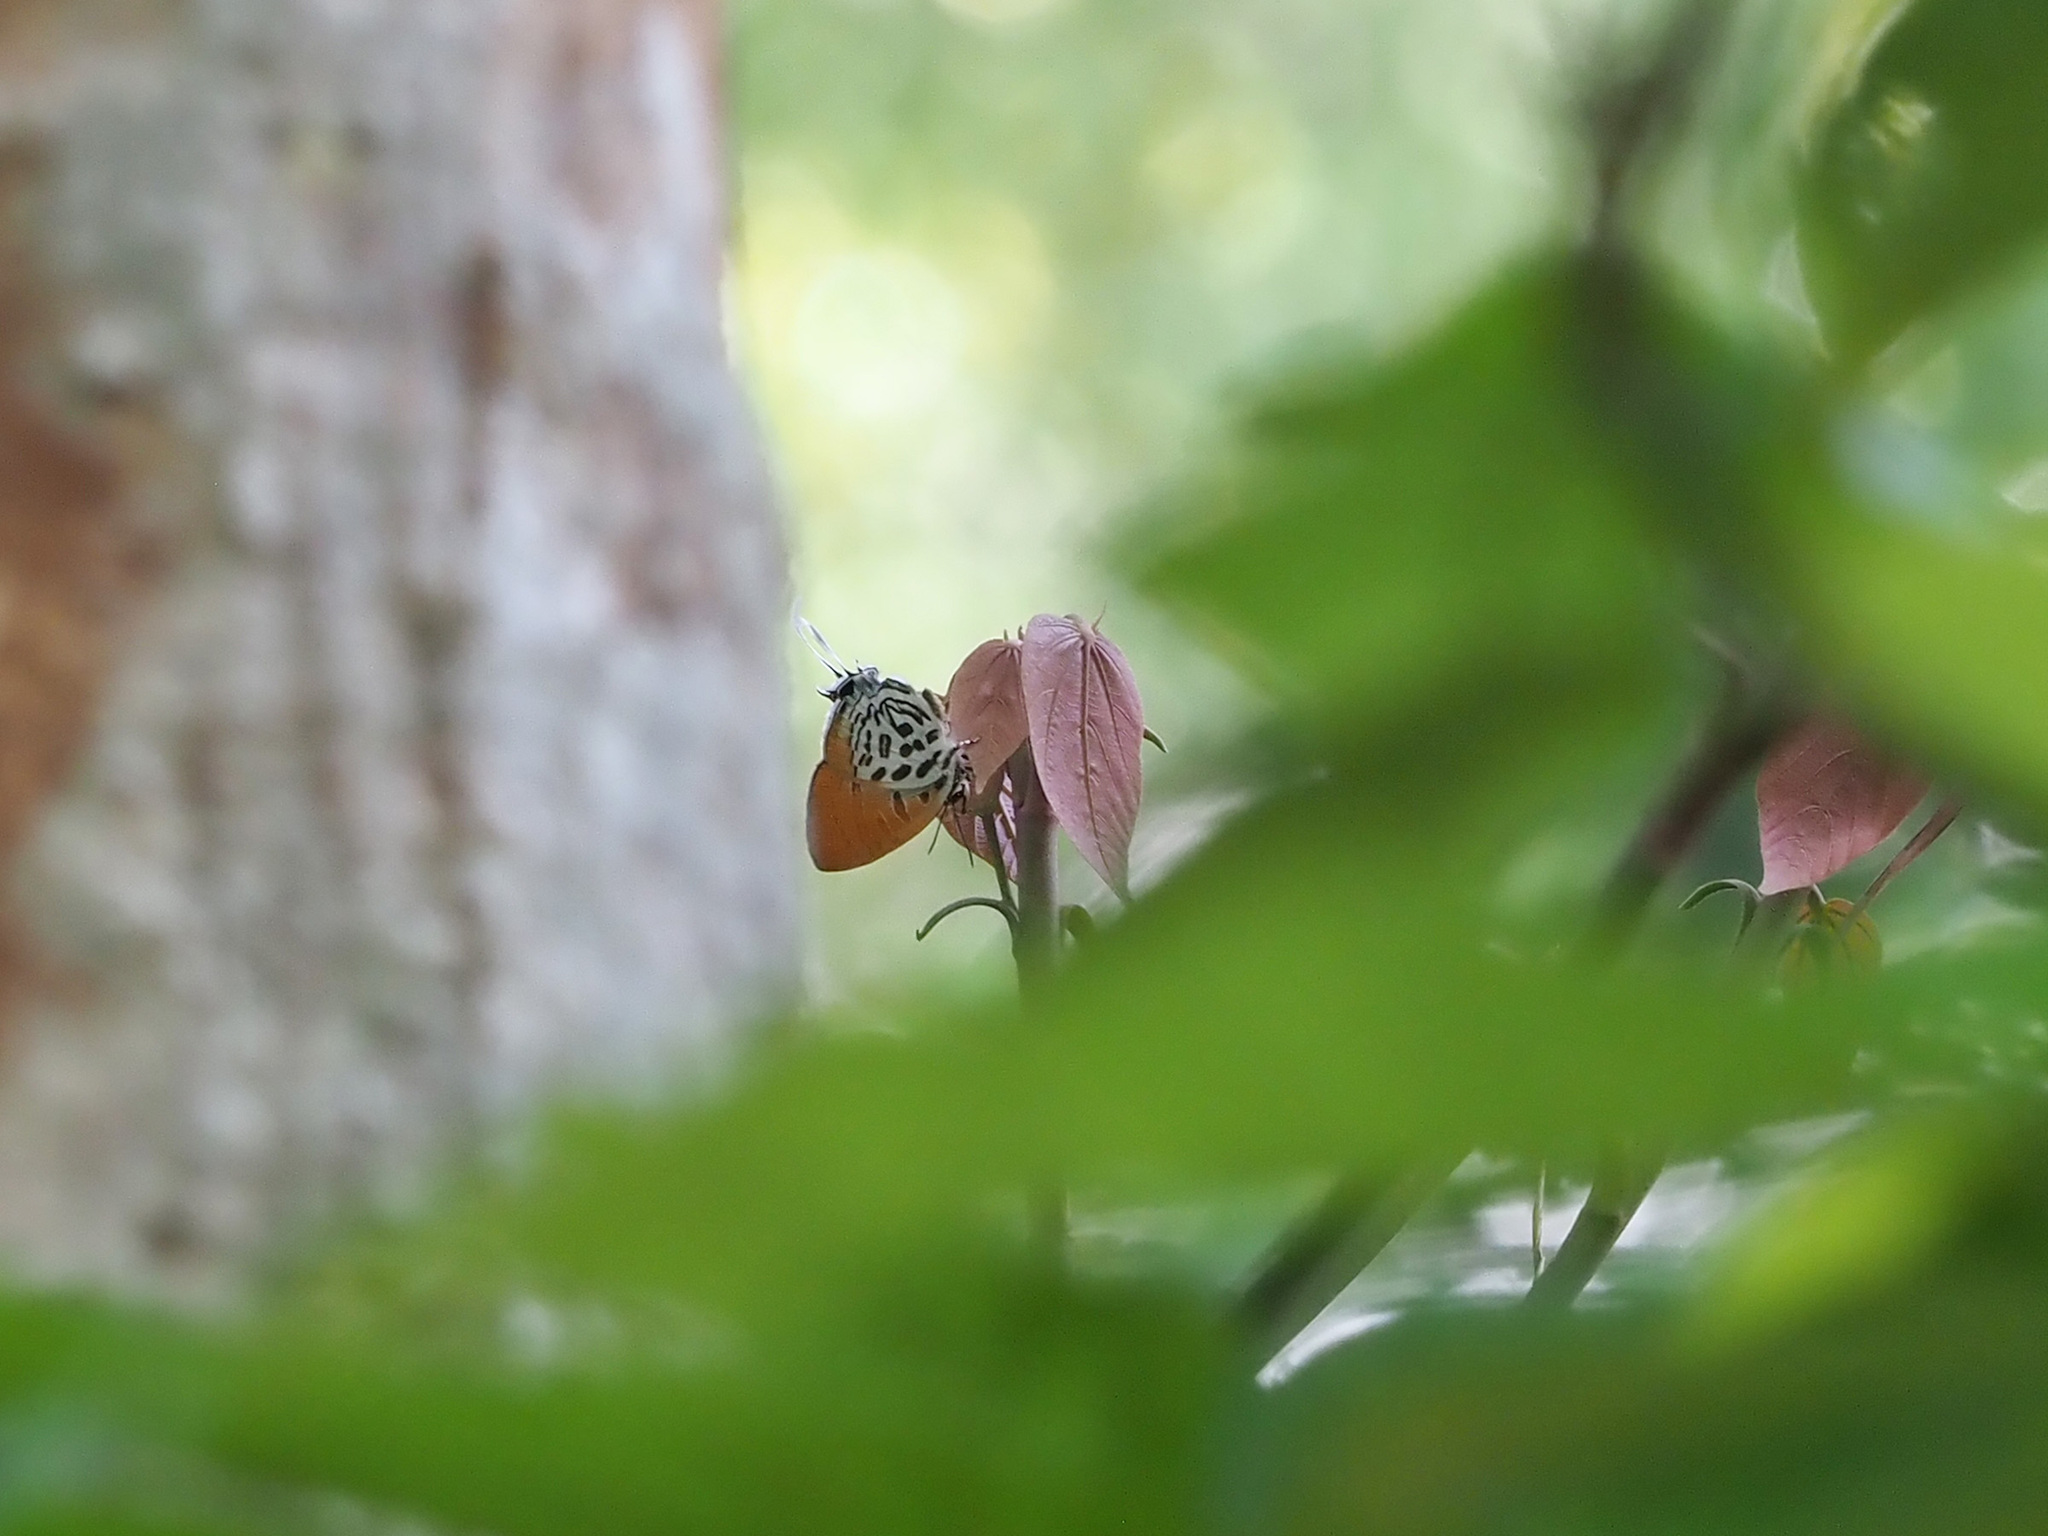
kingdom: Animalia
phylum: Arthropoda
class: Insecta
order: Lepidoptera
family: Lycaenidae
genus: Drupadia
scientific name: Drupadia theda
